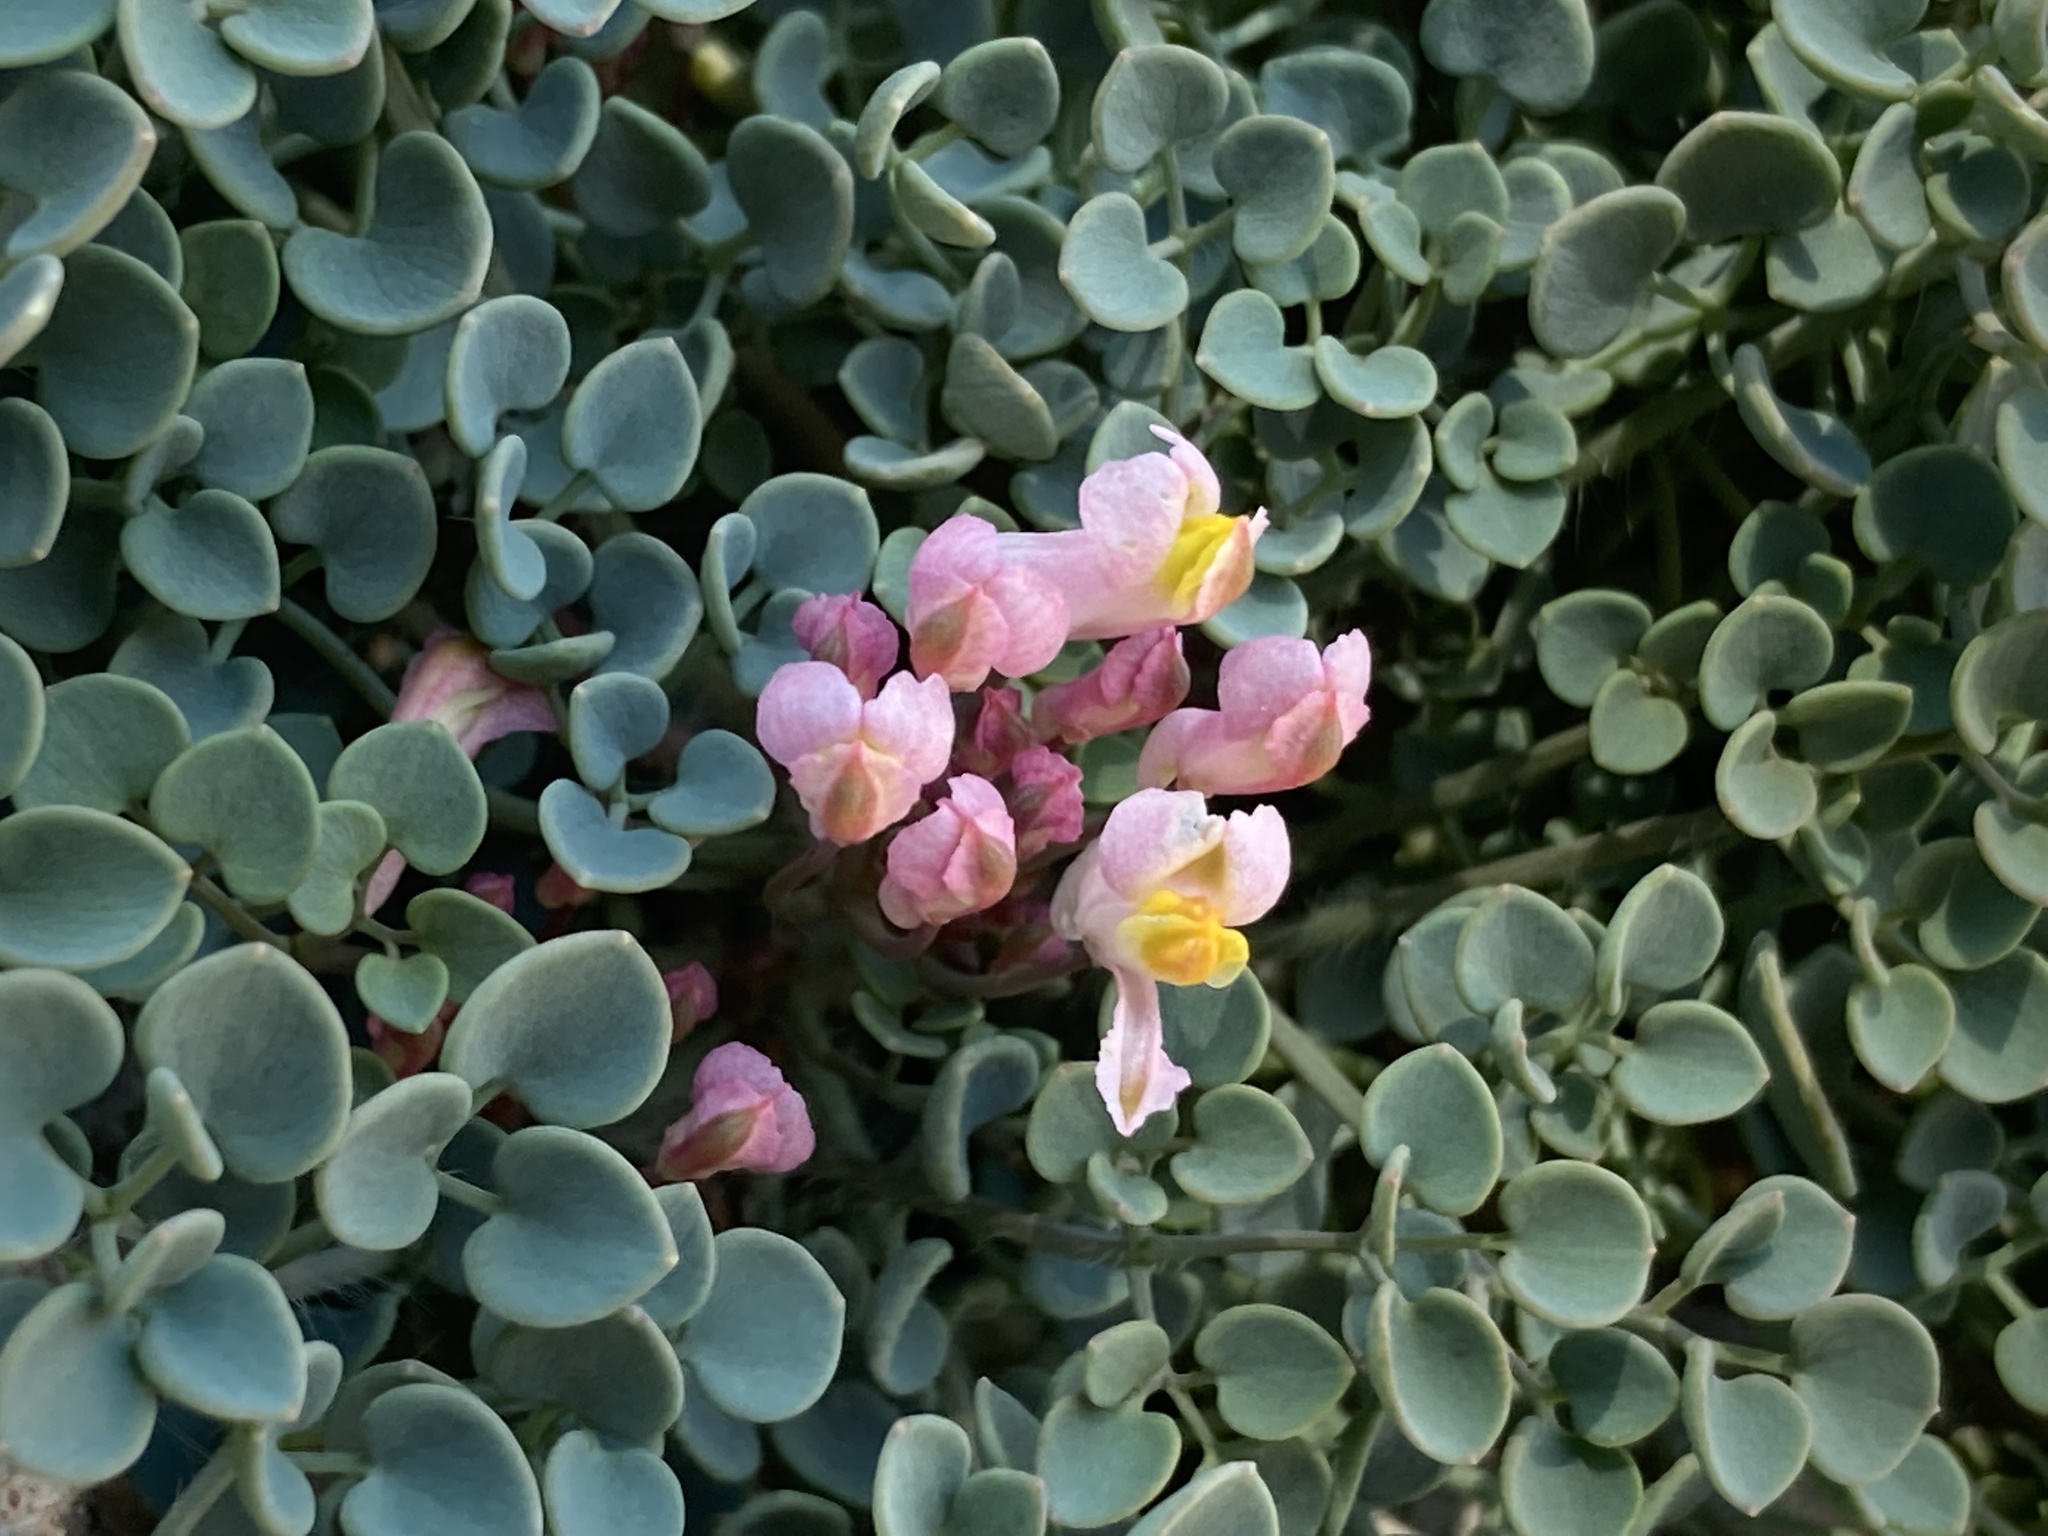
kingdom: Plantae
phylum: Tracheophyta
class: Magnoliopsida
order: Ranunculales
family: Papaveraceae
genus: Sarcocapnos
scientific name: Sarcocapnos enneaphylla
